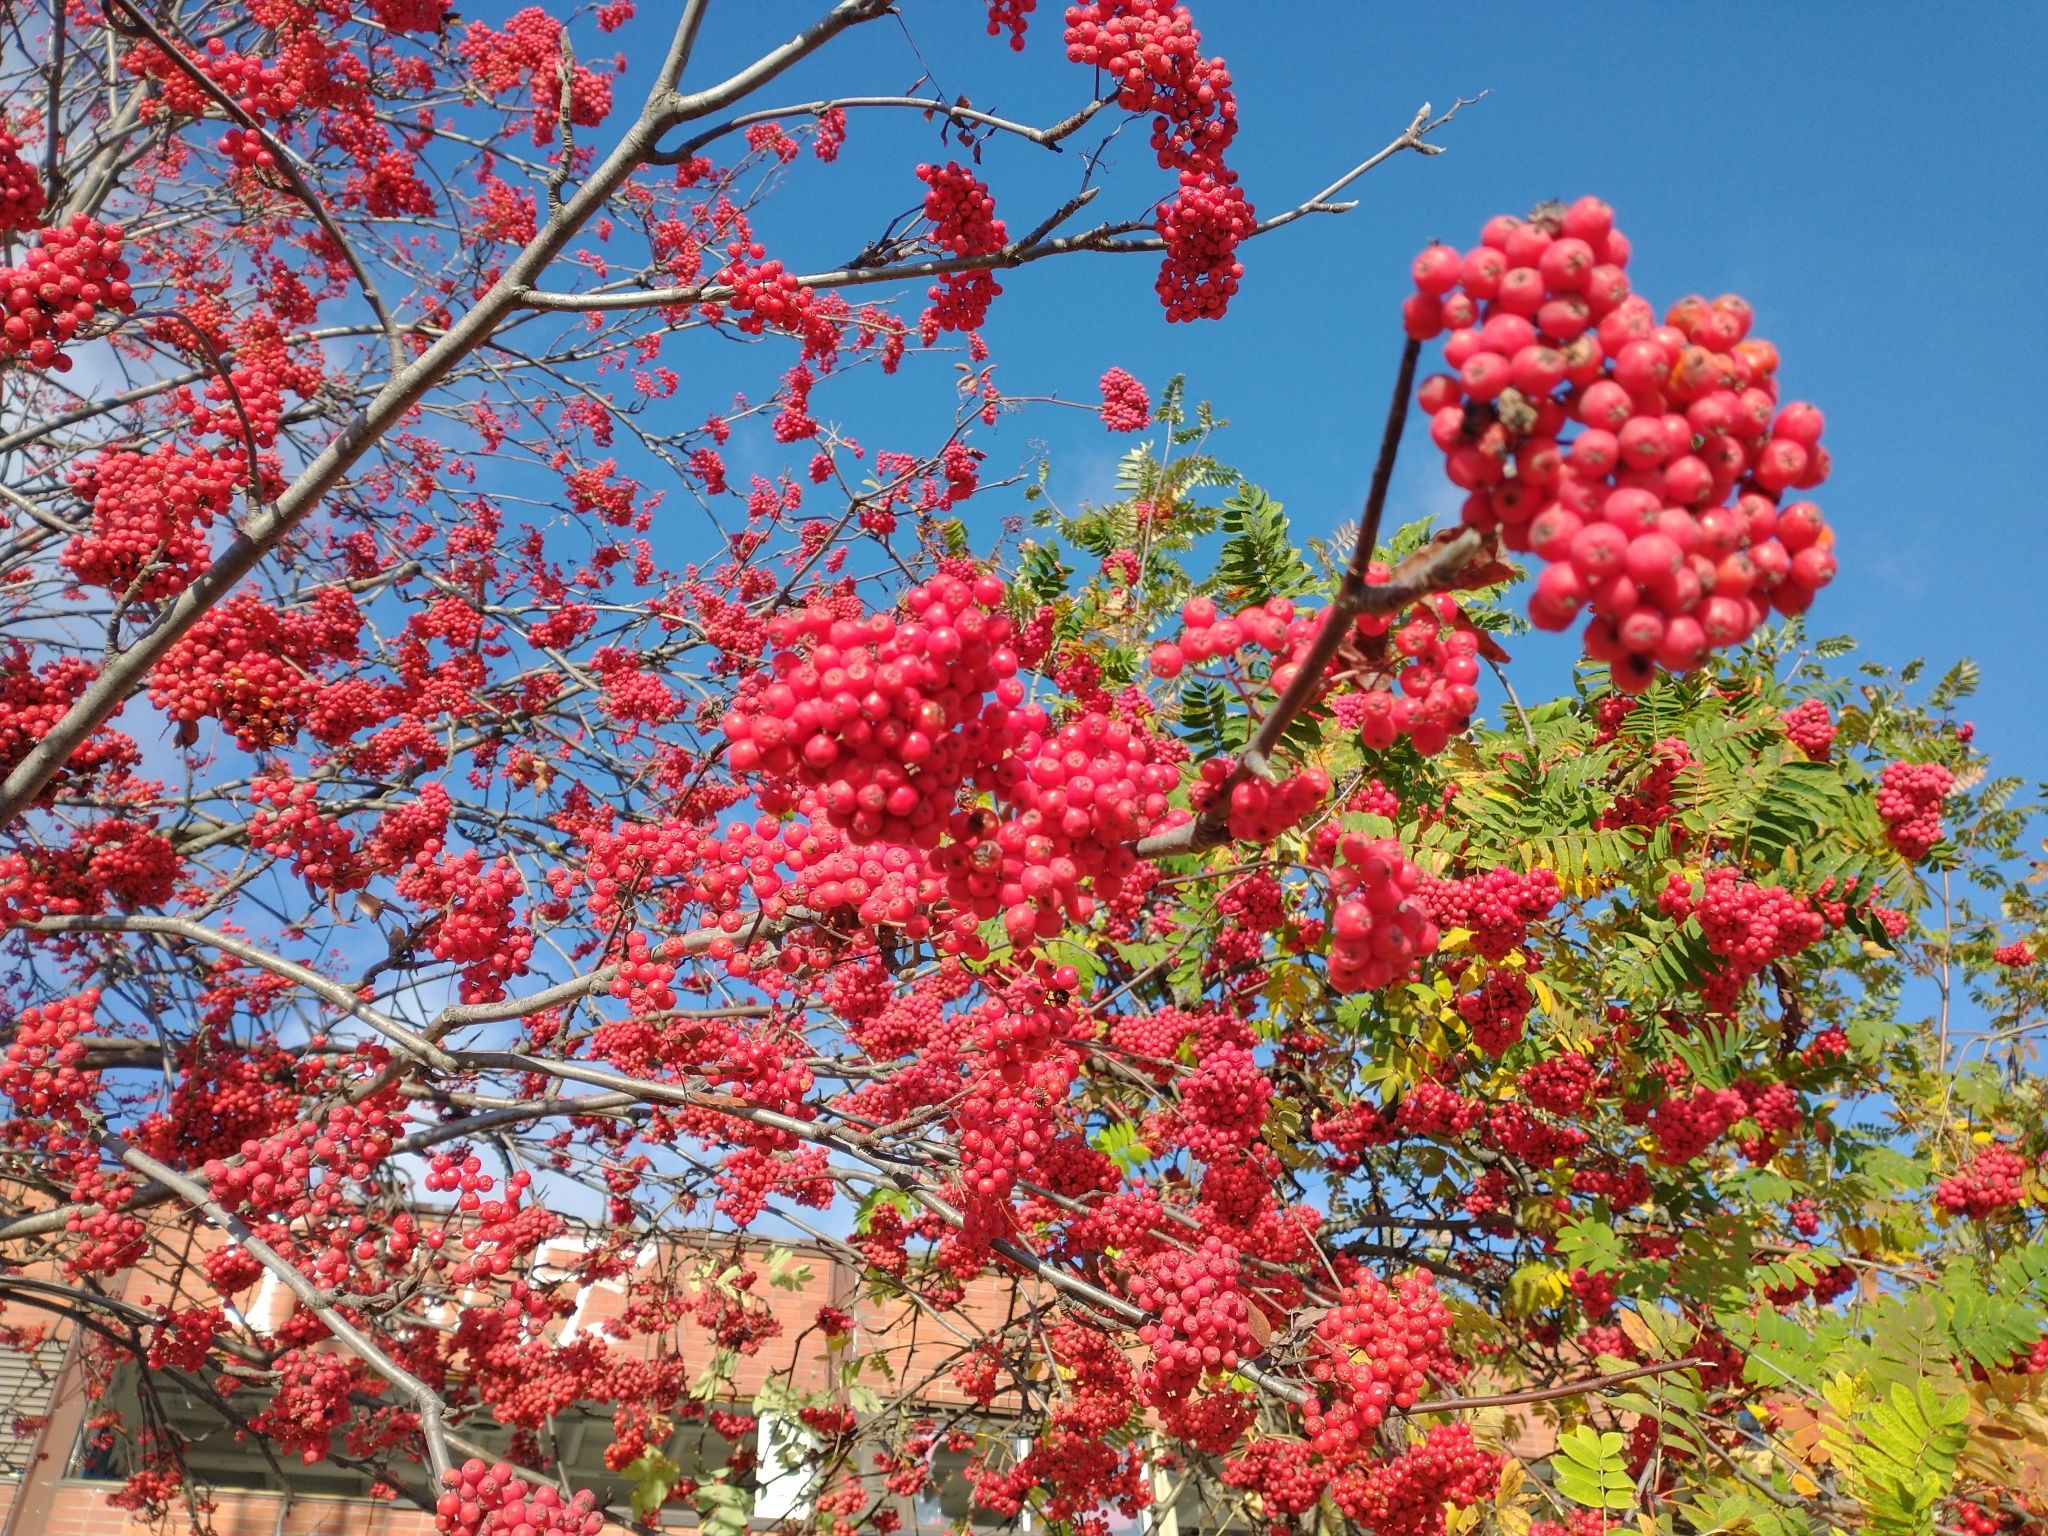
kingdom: Plantae
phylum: Tracheophyta
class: Magnoliopsida
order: Rosales
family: Rosaceae
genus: Sorbus
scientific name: Sorbus aucuparia
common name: Rowan
